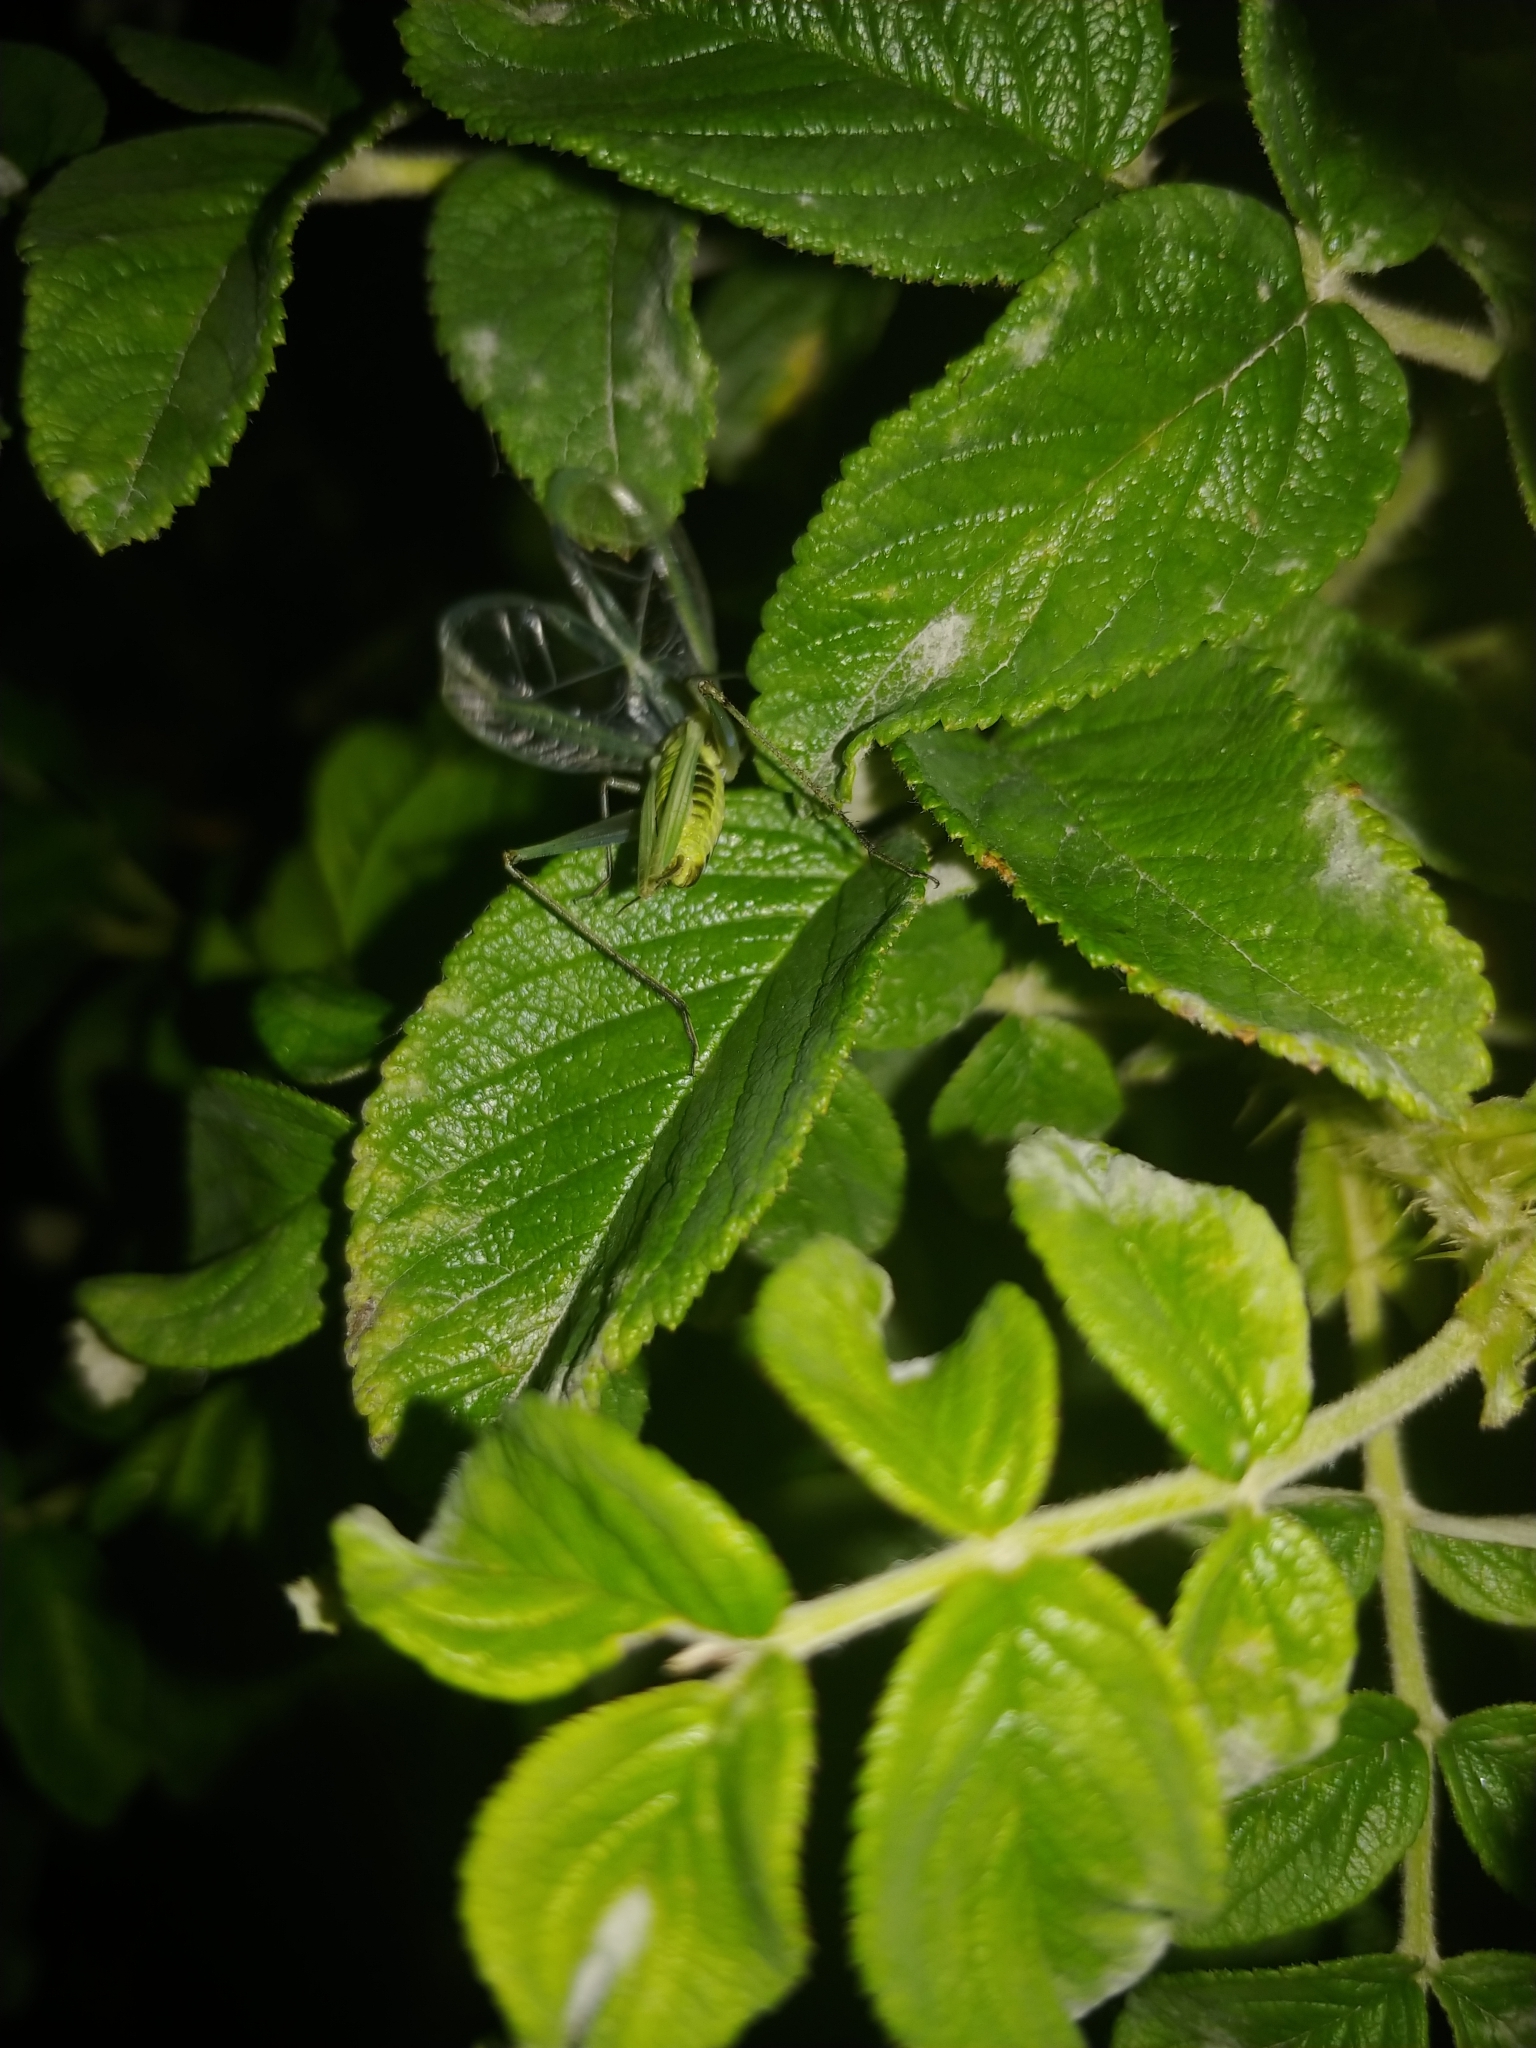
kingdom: Animalia
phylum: Arthropoda
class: Insecta
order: Orthoptera
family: Gryllidae
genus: Oecanthus
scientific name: Oecanthus nigricornis
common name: Black-horned tree cricket
